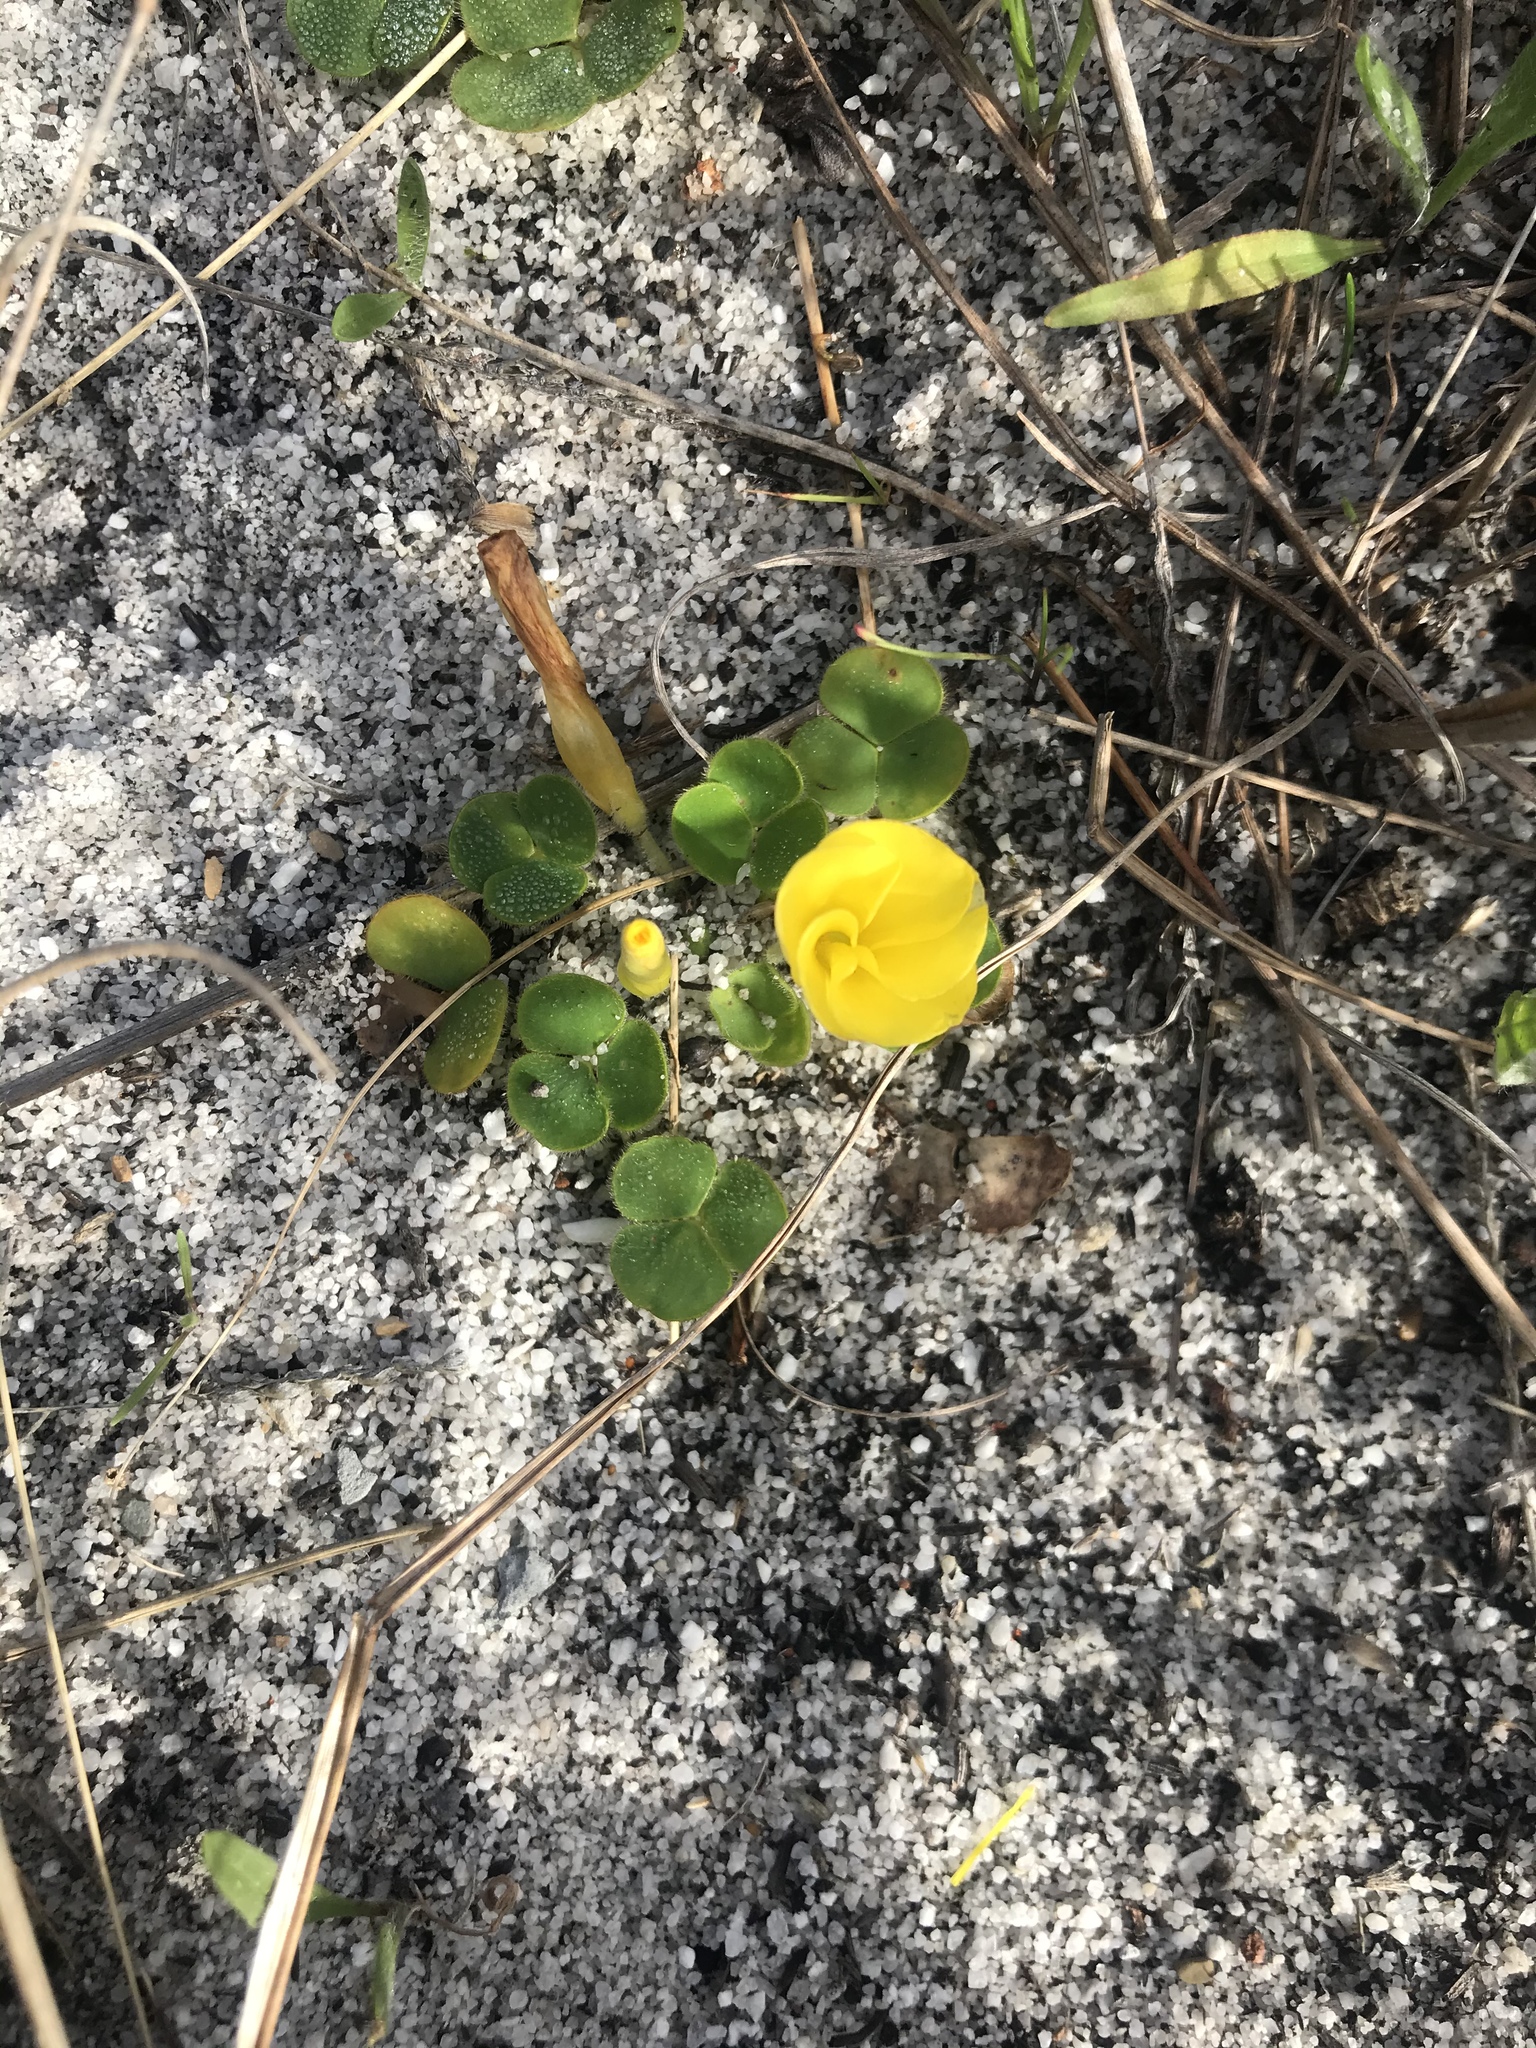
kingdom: Plantae
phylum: Tracheophyta
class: Magnoliopsida
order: Oxalidales
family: Oxalidaceae
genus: Oxalis
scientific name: Oxalis luteola
